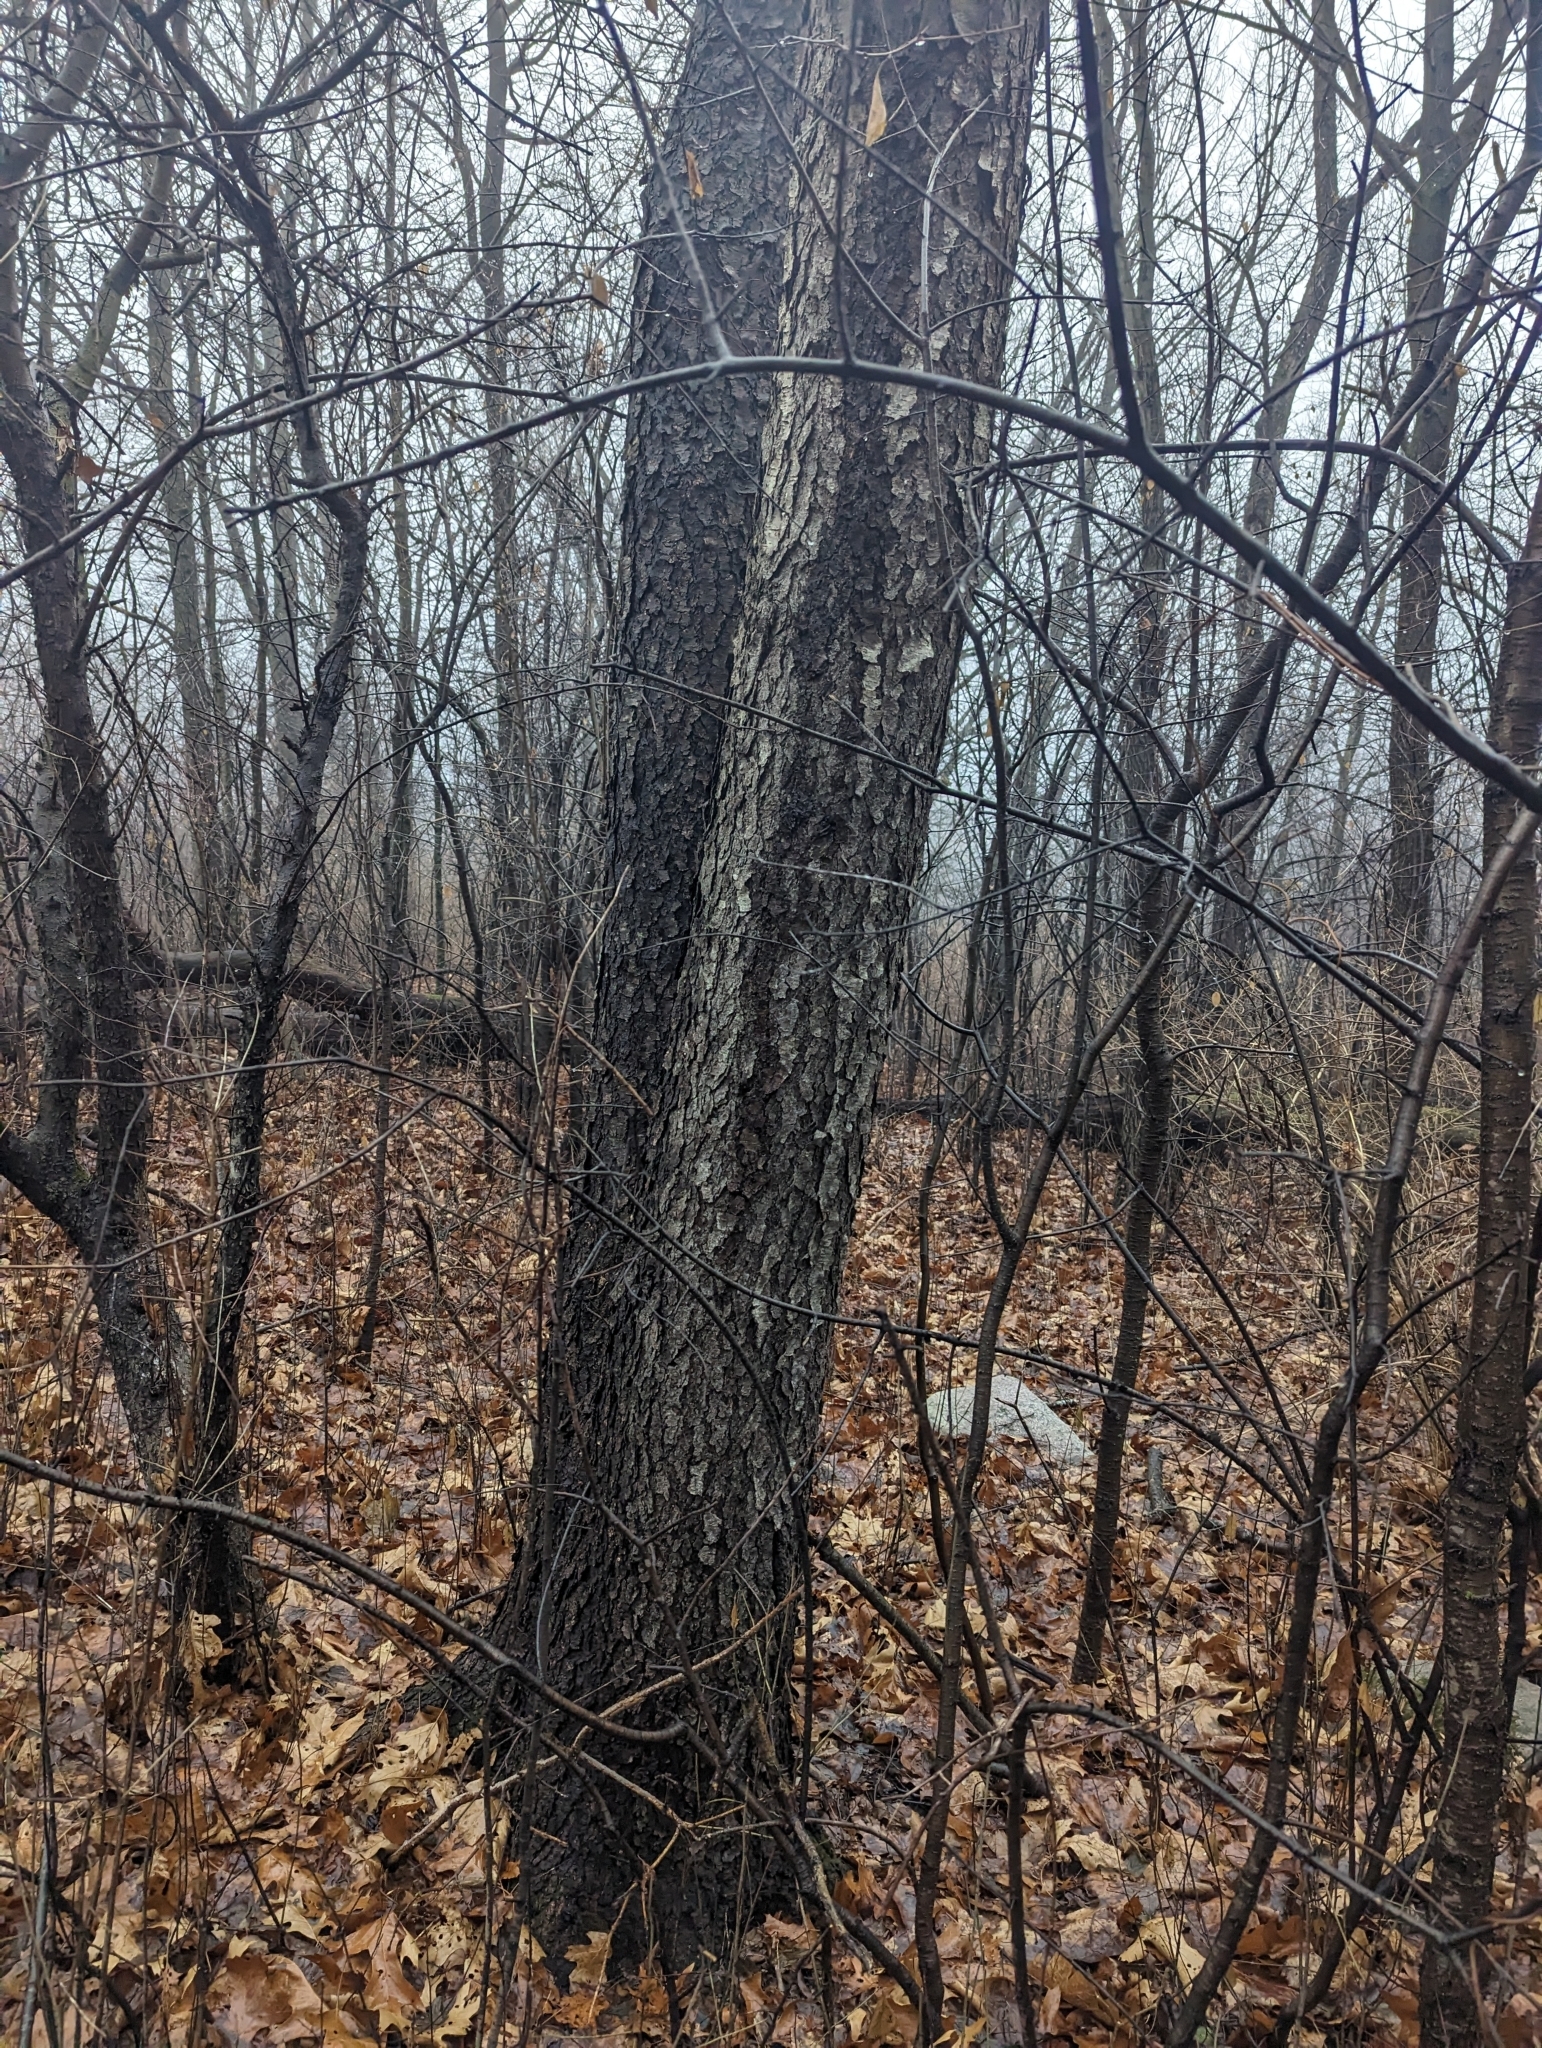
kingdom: Plantae
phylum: Tracheophyta
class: Magnoliopsida
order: Rosales
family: Rosaceae
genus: Prunus
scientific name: Prunus serotina
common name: Black cherry
